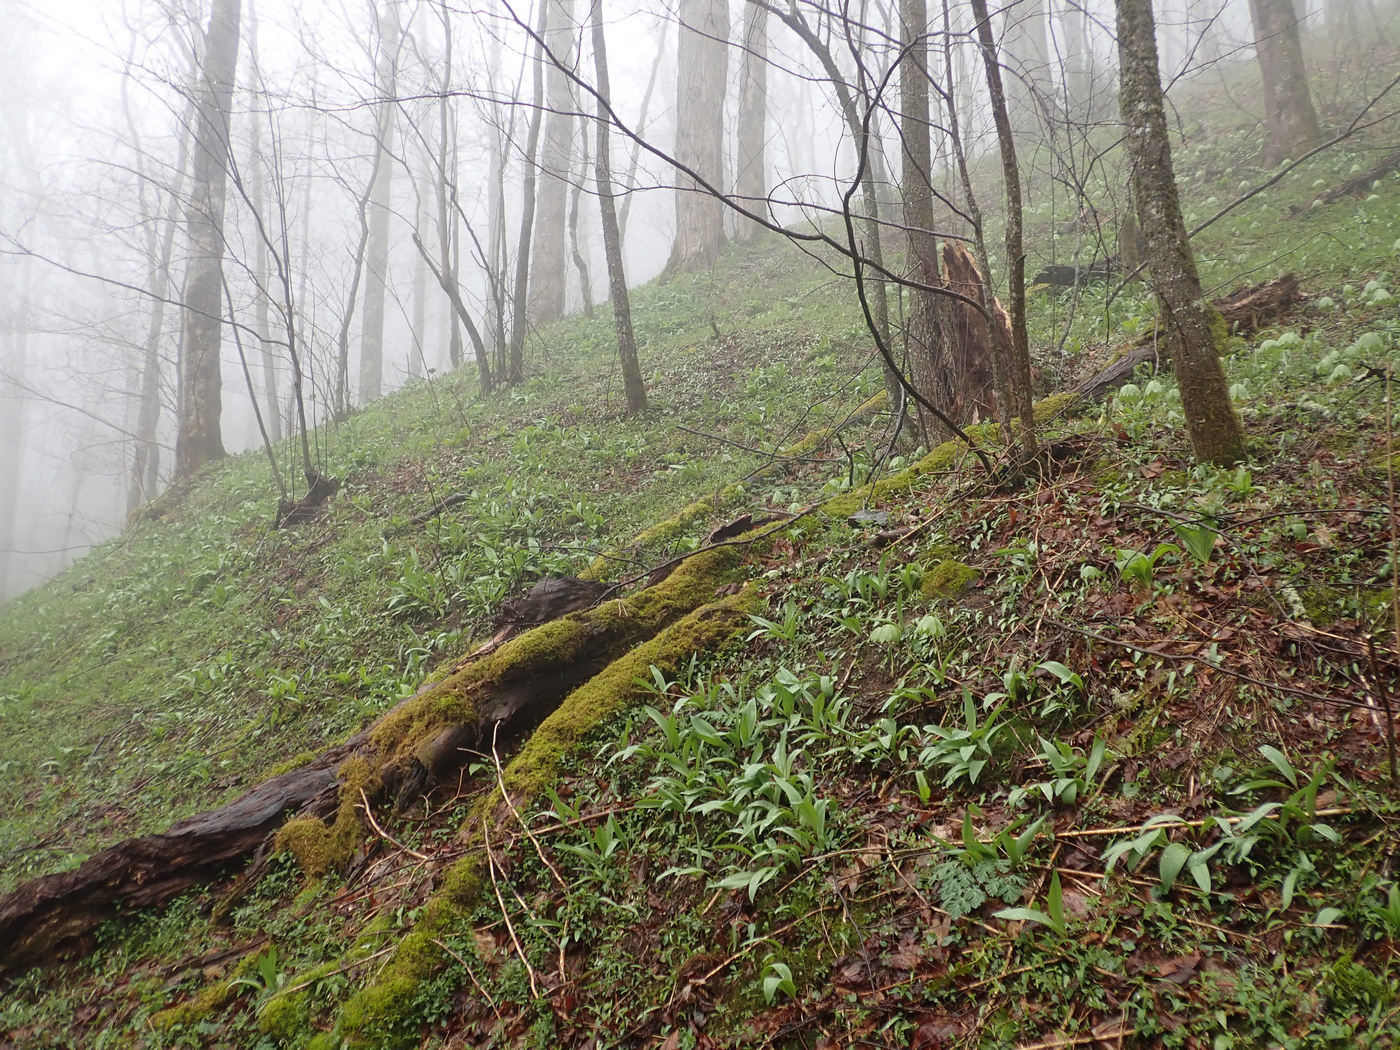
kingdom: Plantae
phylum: Tracheophyta
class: Liliopsida
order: Asparagales
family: Amaryllidaceae
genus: Allium
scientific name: Allium tricoccum
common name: Ramp
